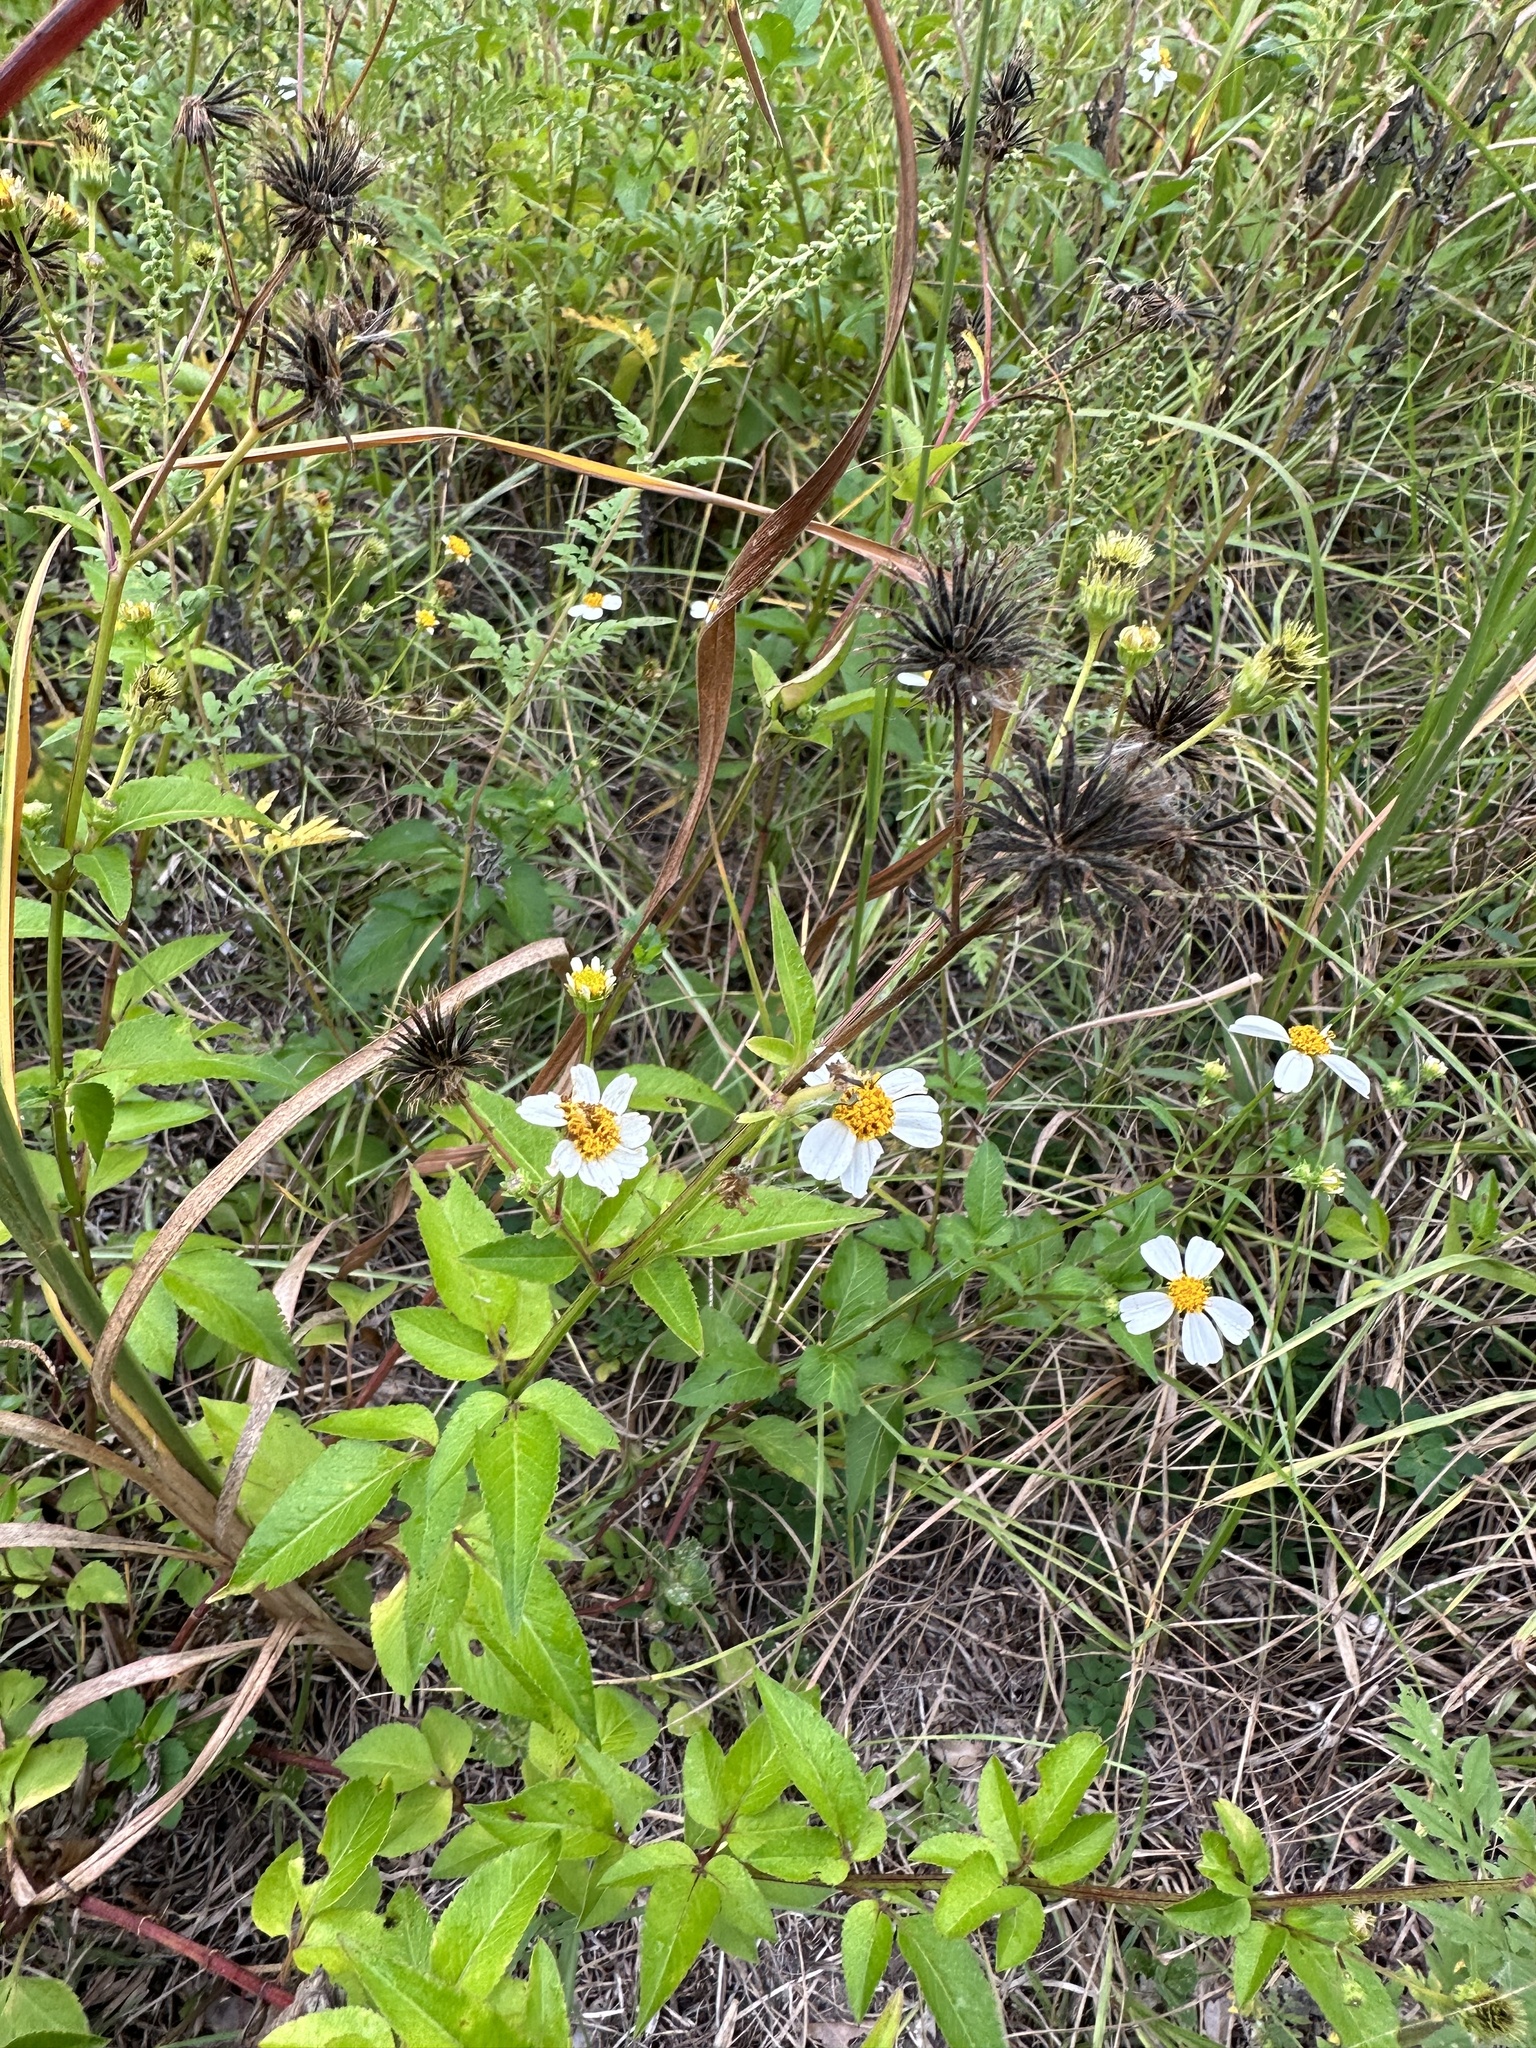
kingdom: Plantae
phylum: Tracheophyta
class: Magnoliopsida
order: Asterales
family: Asteraceae
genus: Bidens
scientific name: Bidens alba
